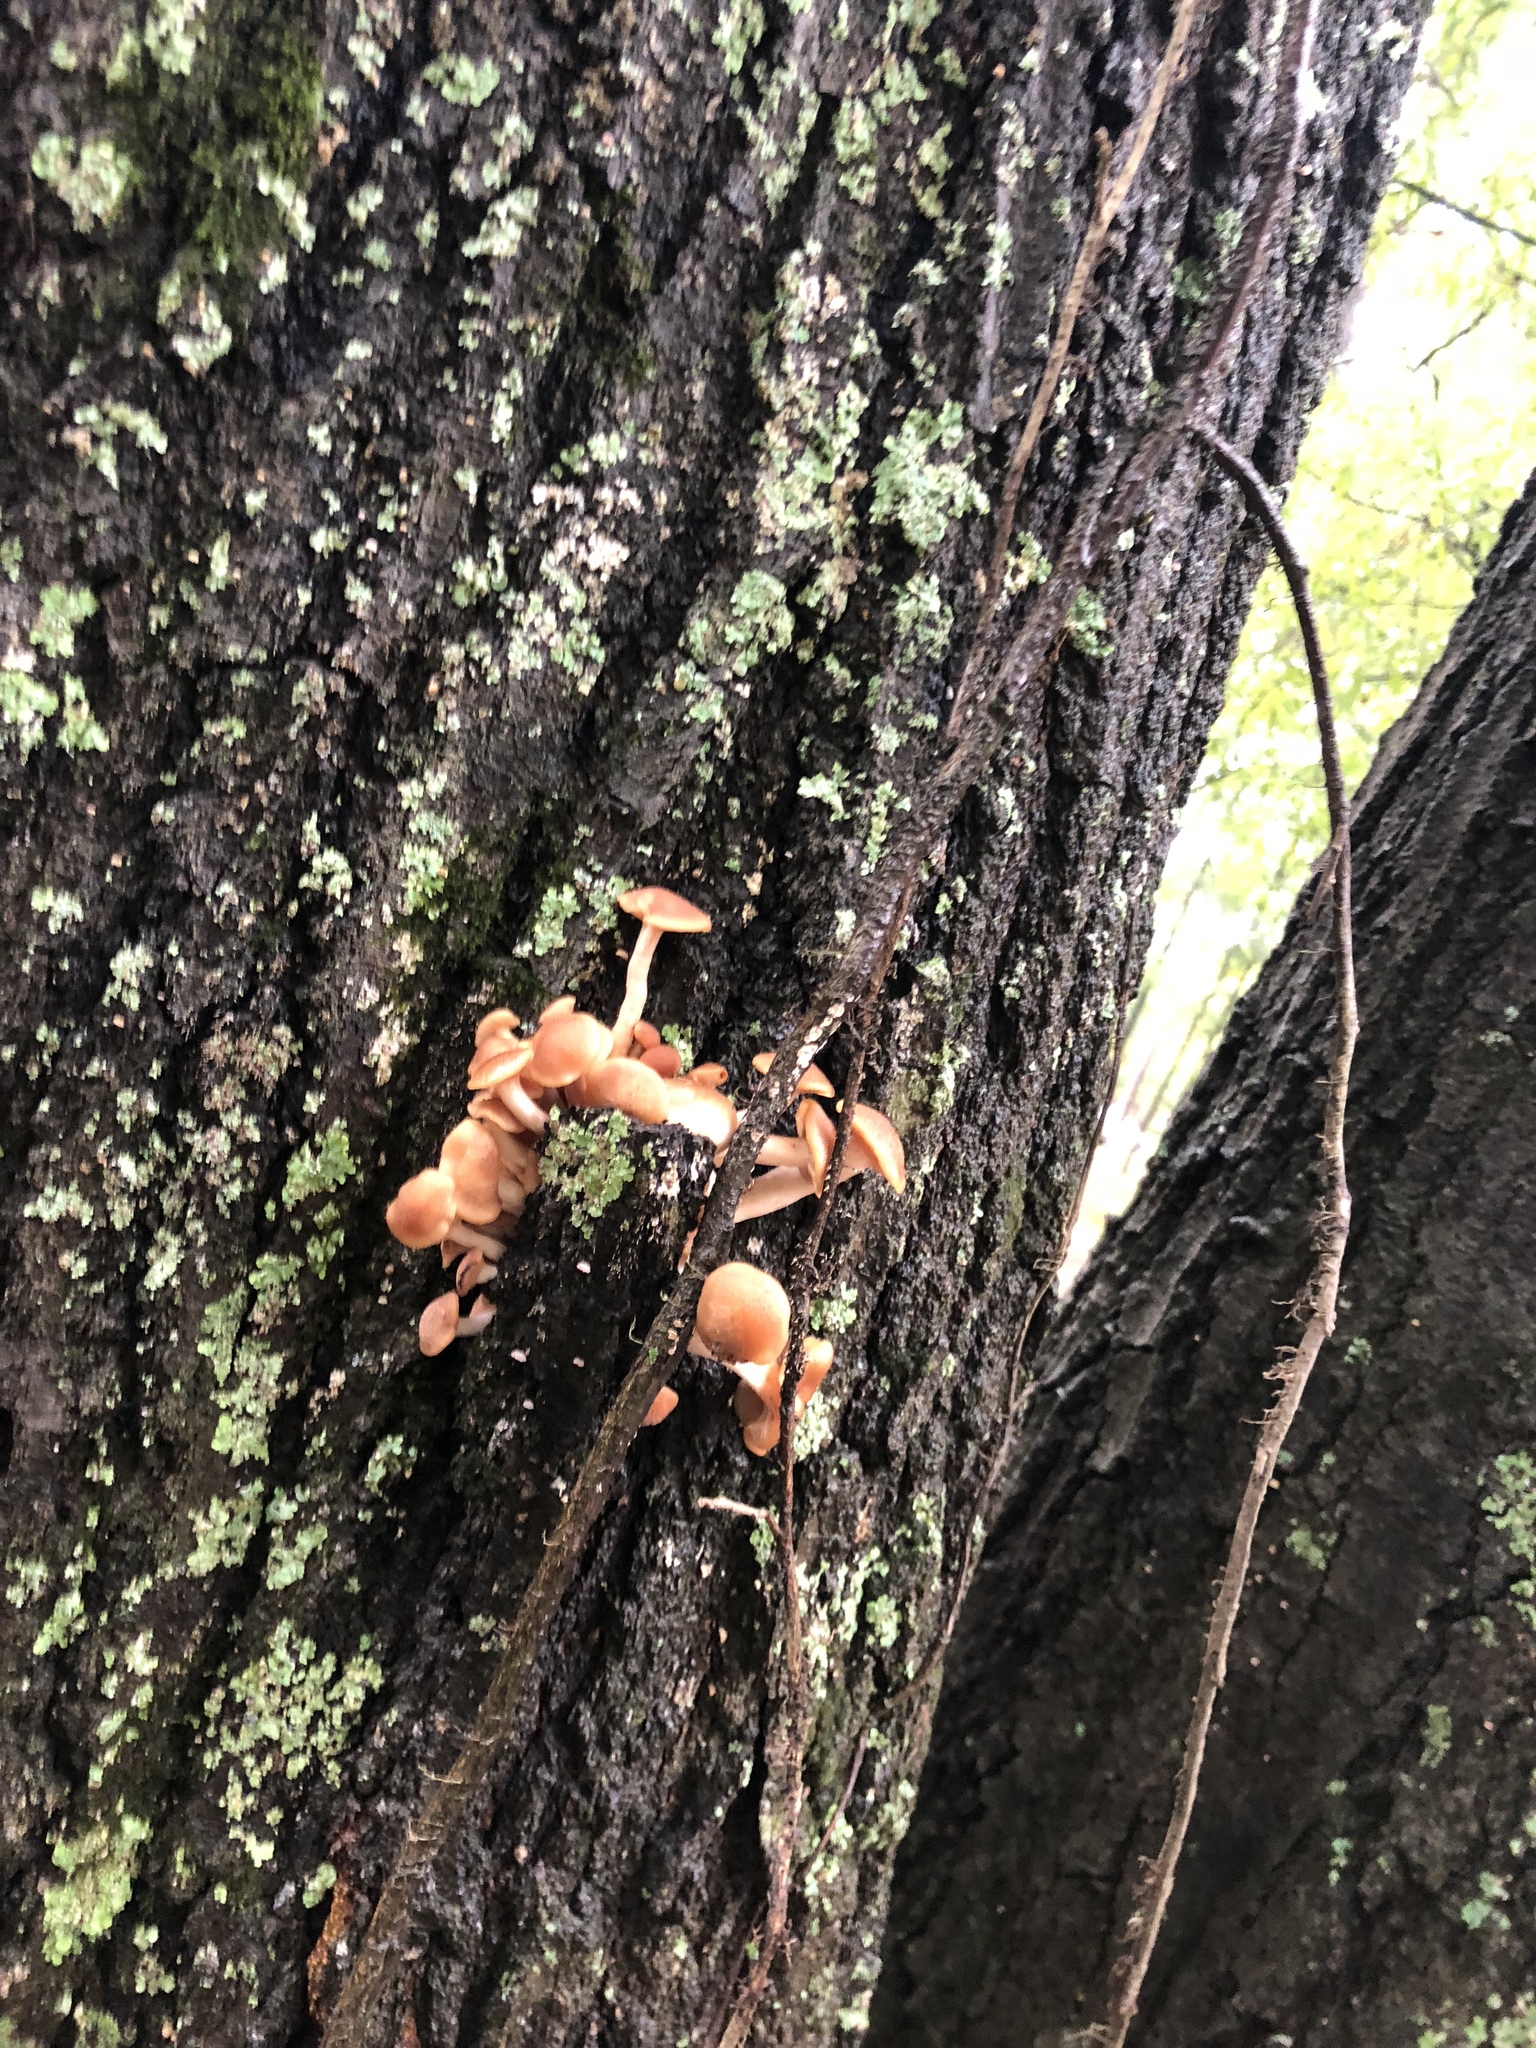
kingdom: Fungi
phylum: Basidiomycota
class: Agaricomycetes
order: Agaricales
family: Physalacriaceae
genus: Desarmillaria
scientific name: Desarmillaria caespitosa
